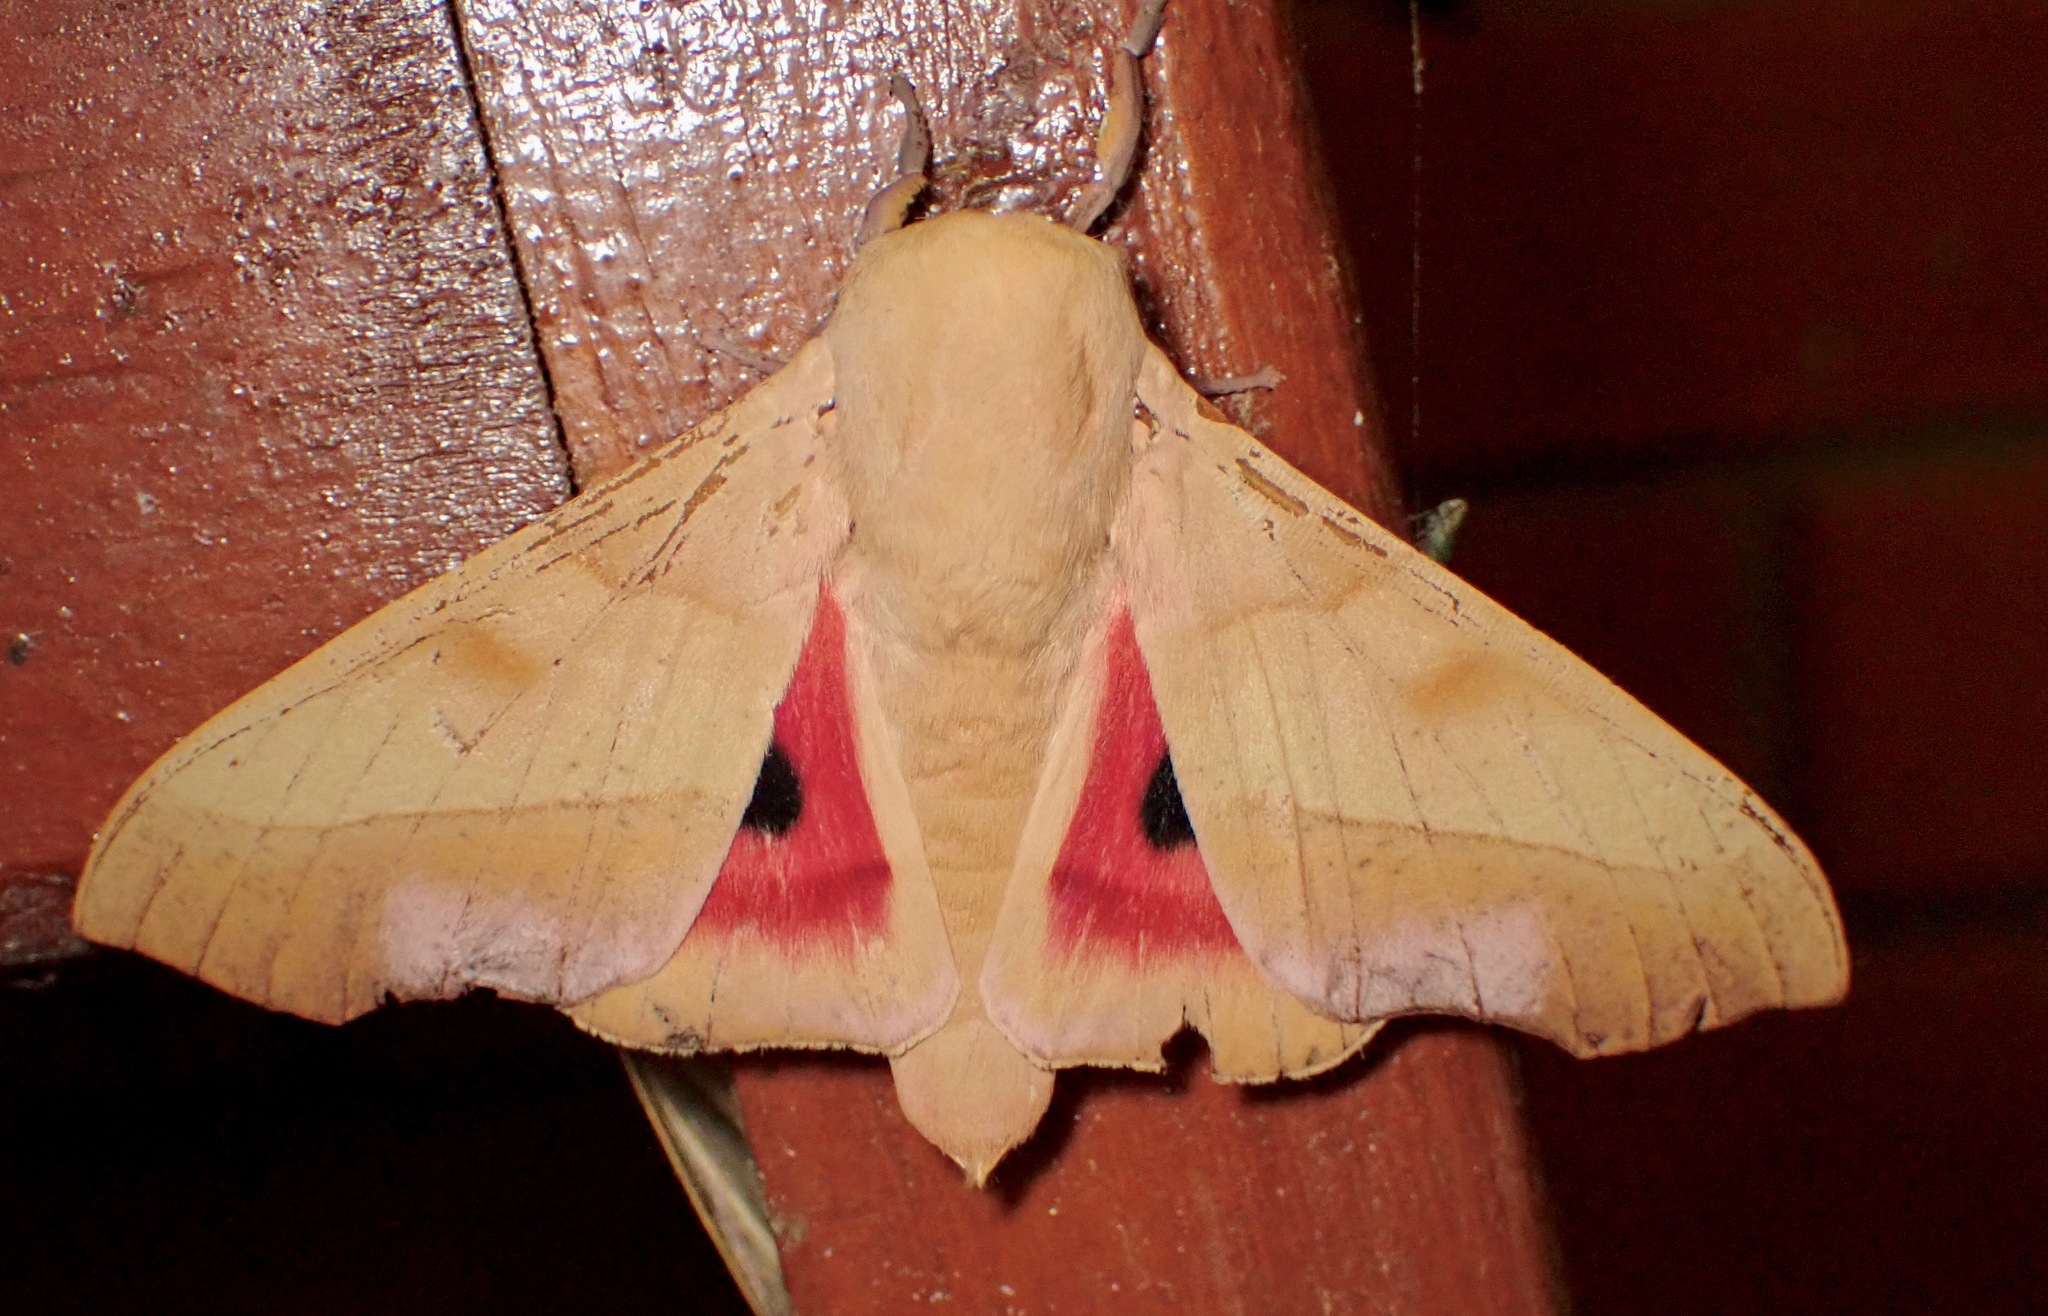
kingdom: Animalia
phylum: Arthropoda
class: Insecta
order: Lepidoptera
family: Saturniidae
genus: Syssphinx
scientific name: Syssphinx molina
